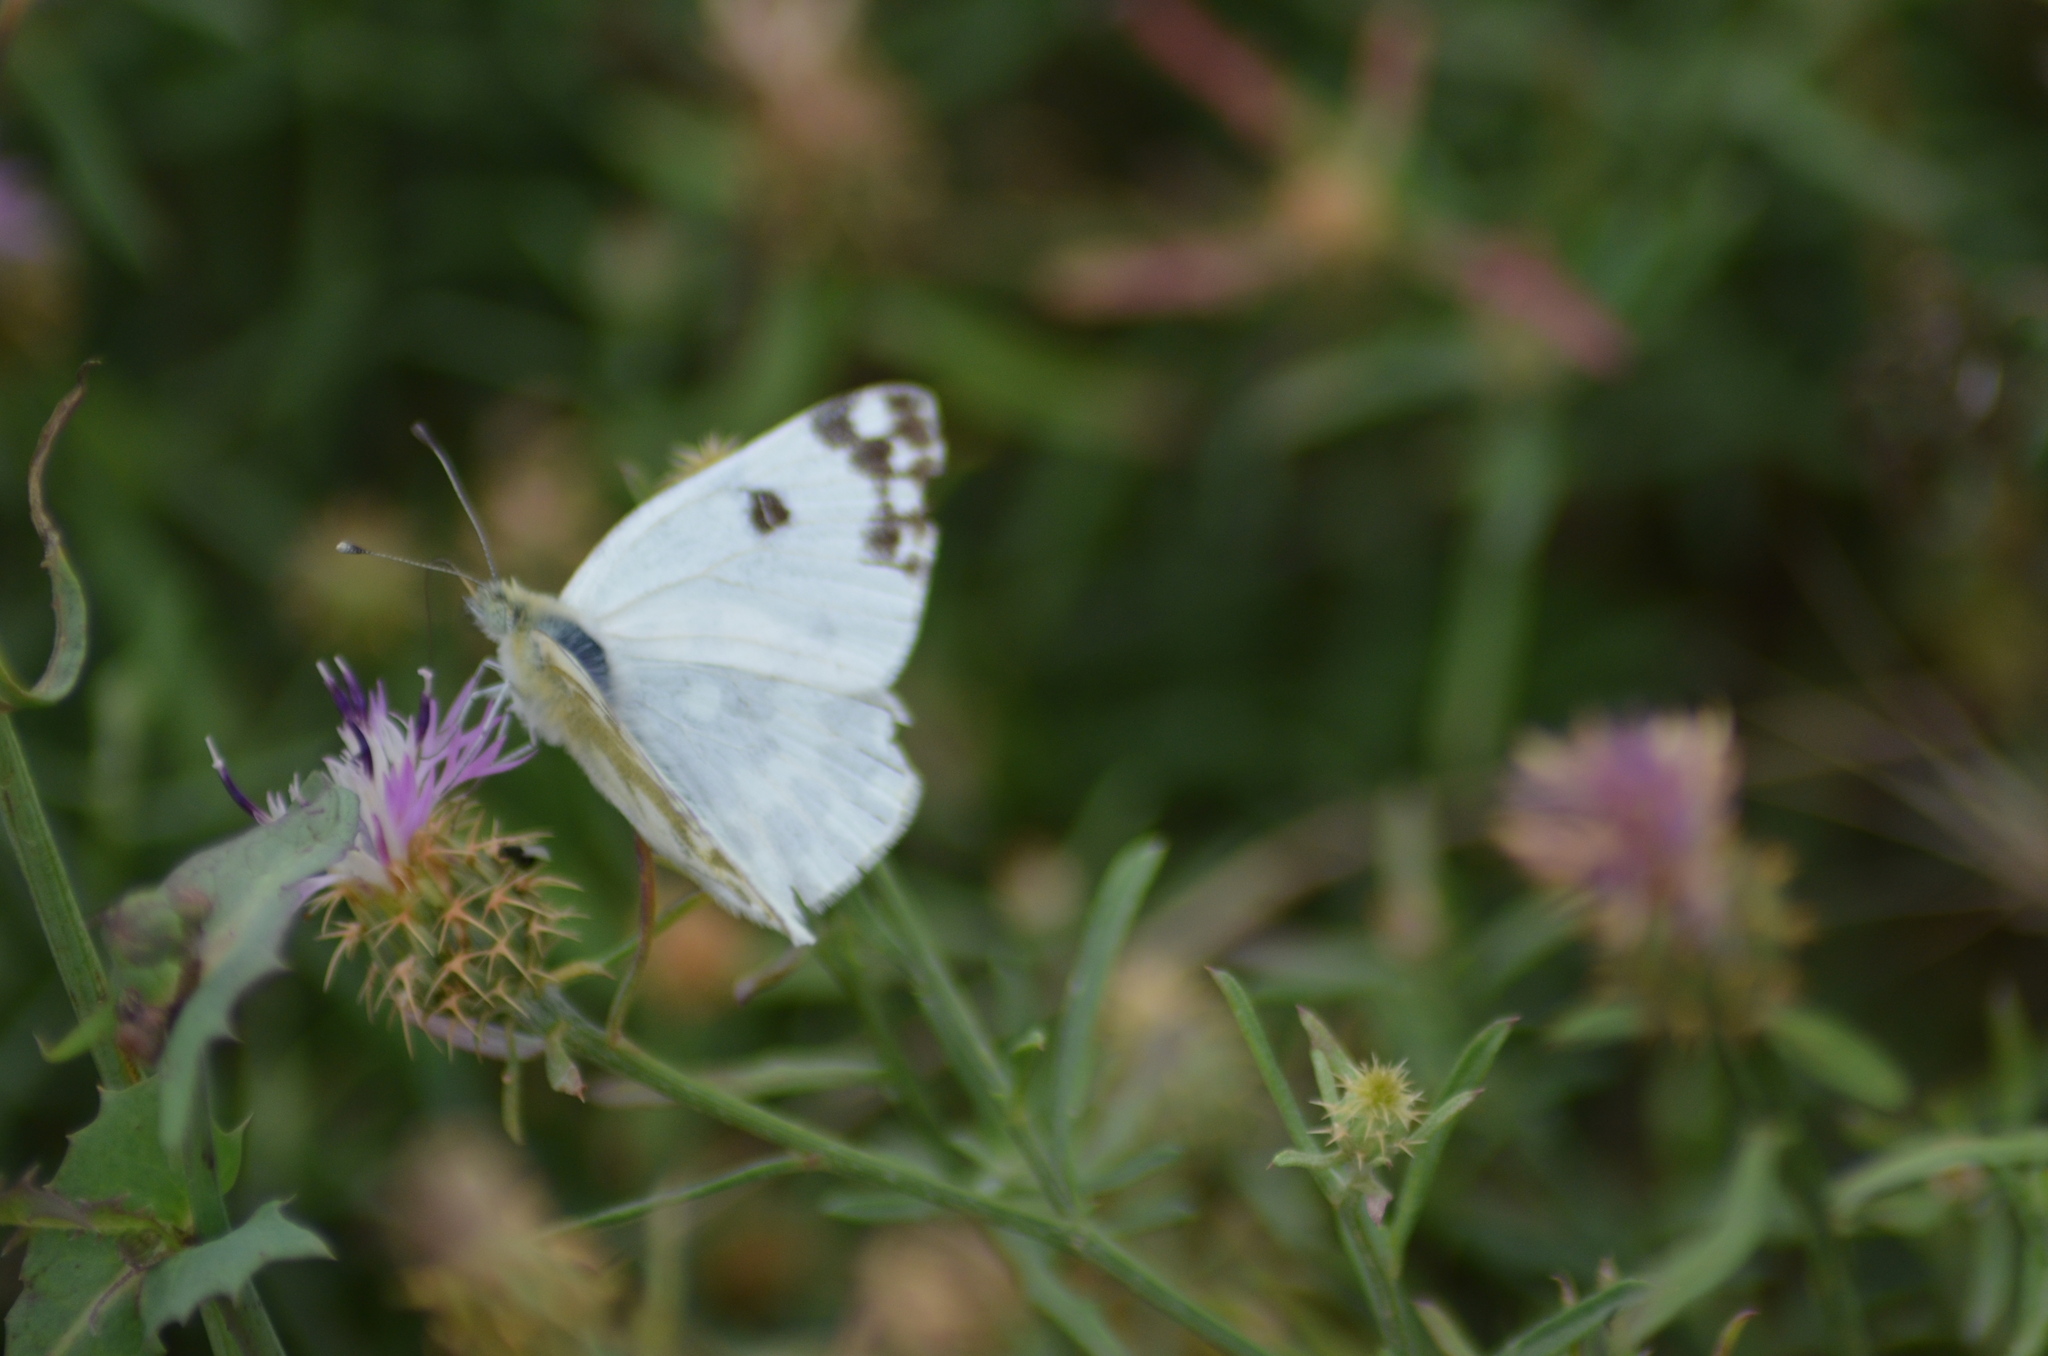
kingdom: Animalia
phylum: Arthropoda
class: Insecta
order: Lepidoptera
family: Pieridae
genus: Pontia
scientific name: Pontia daplidice
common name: Bath white
